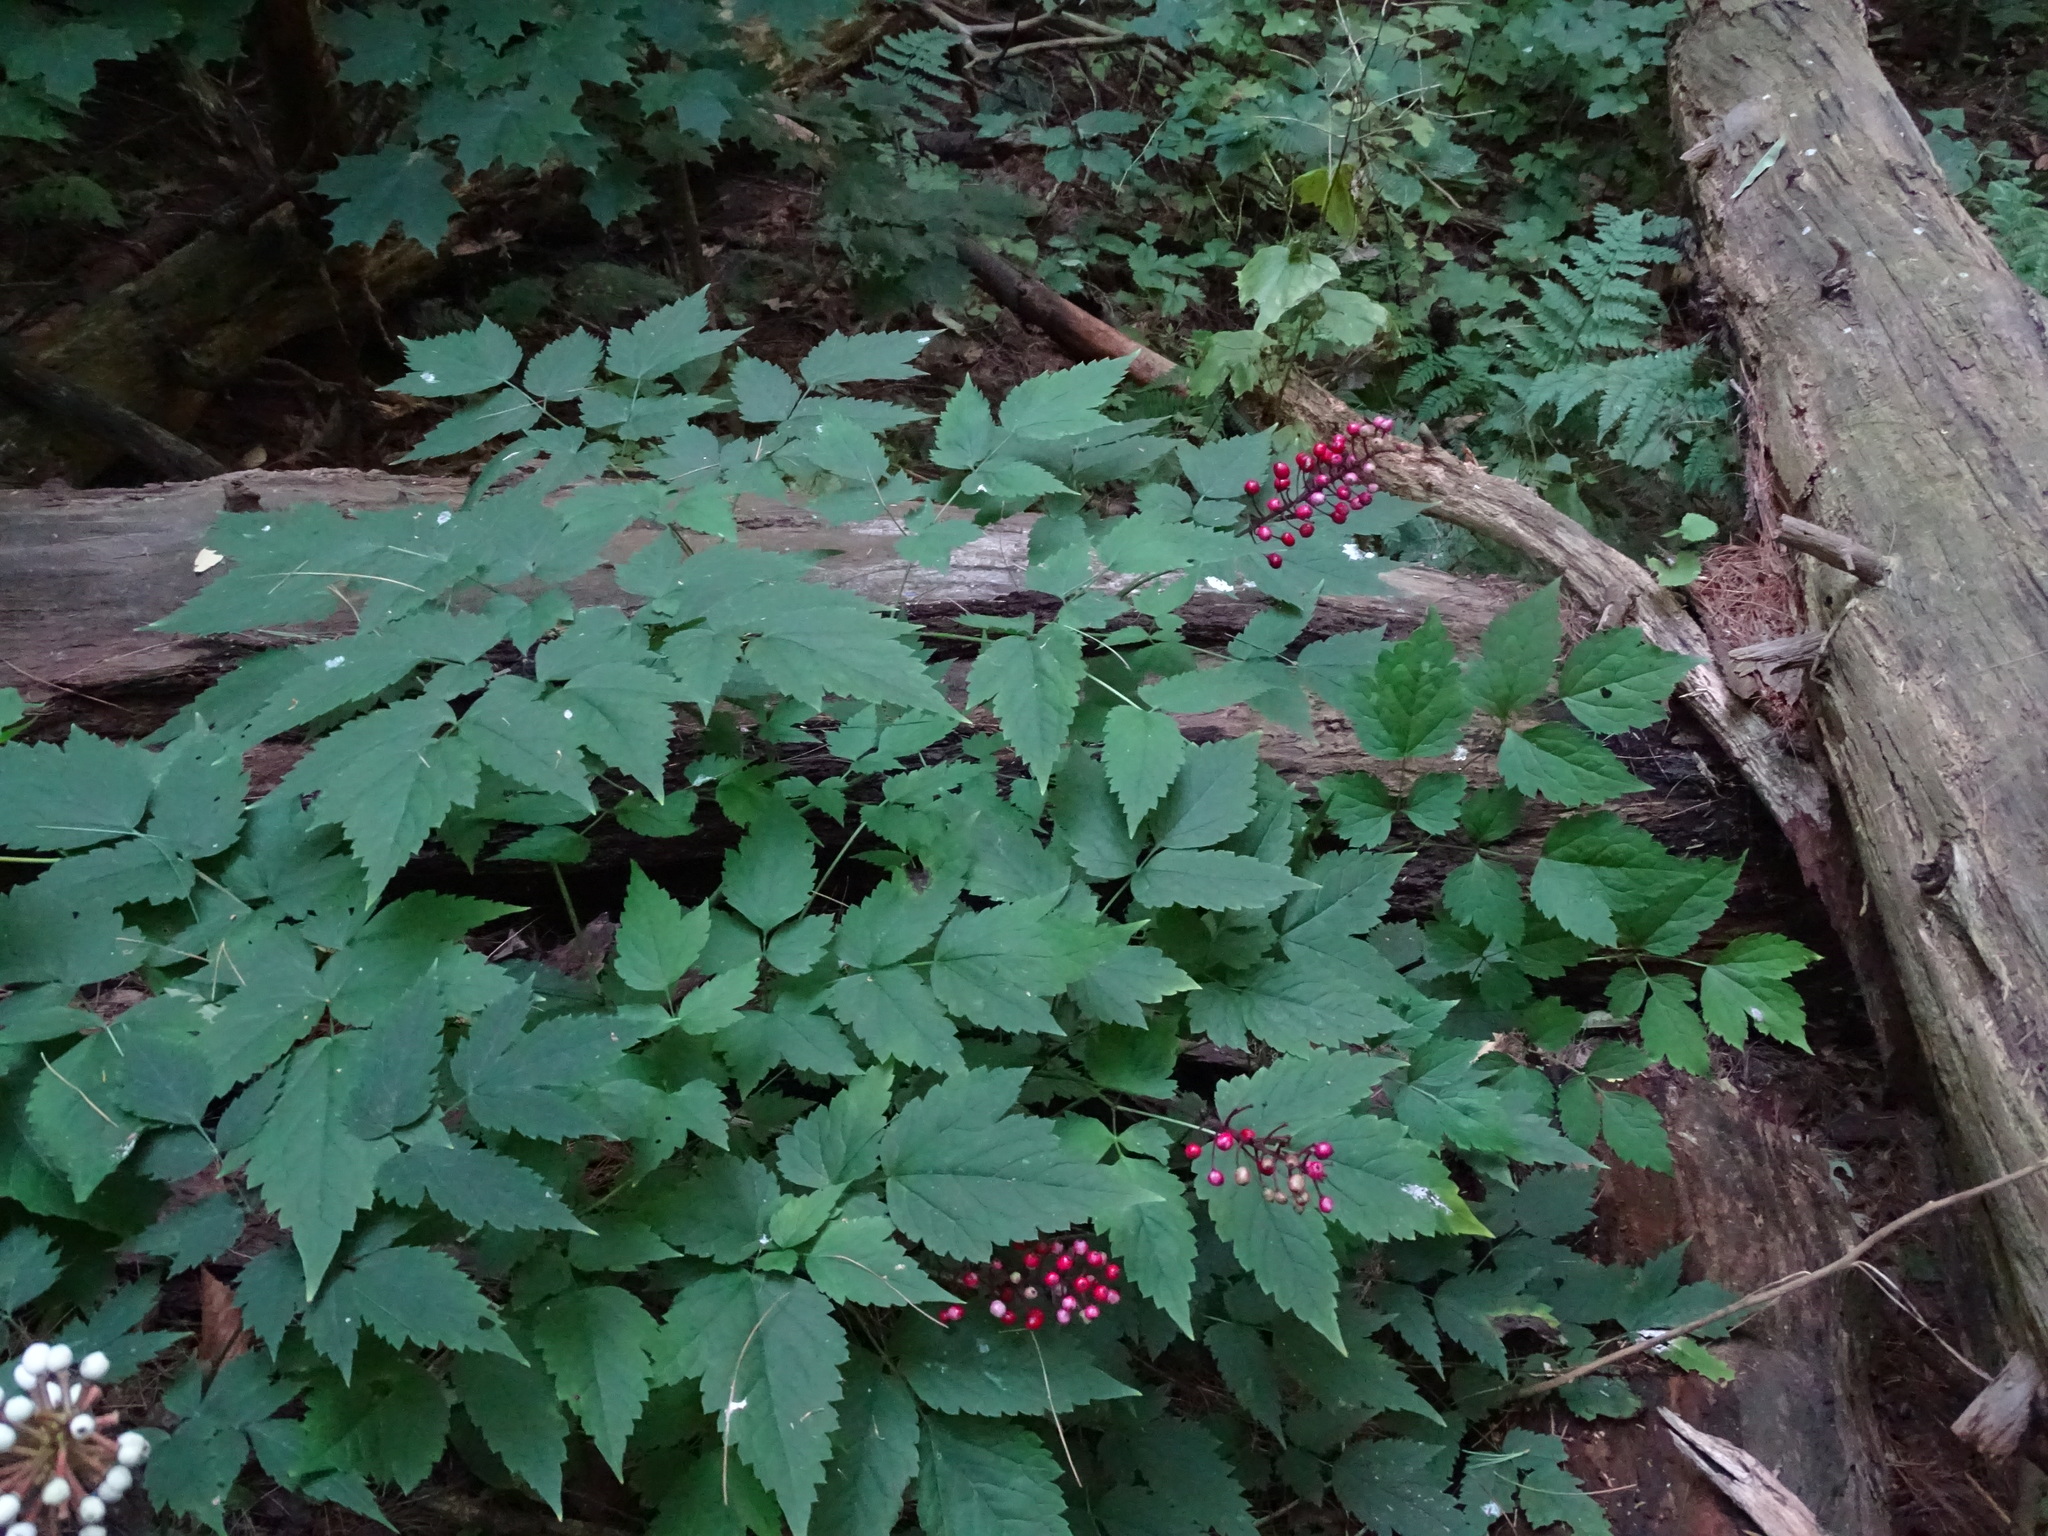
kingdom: Plantae
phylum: Tracheophyta
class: Magnoliopsida
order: Ranunculales
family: Ranunculaceae
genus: Actaea
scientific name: Actaea ludovici
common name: Ludovic's baneberry
